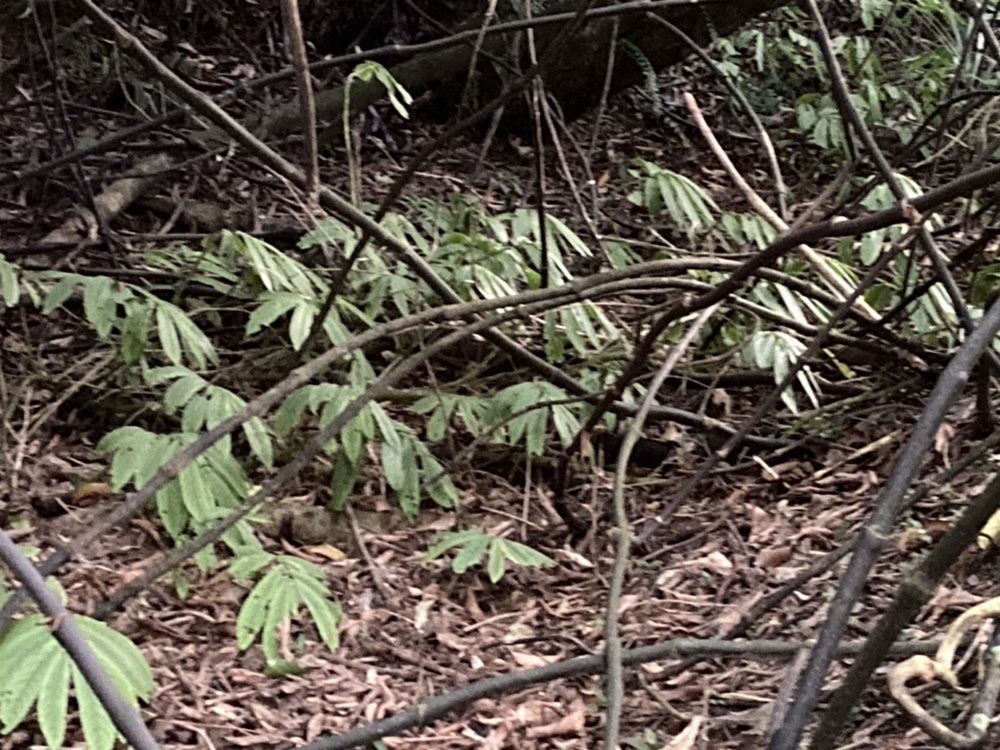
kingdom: Plantae
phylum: Tracheophyta
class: Magnoliopsida
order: Rosales
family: Urticaceae
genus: Elatostema
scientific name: Elatostema rugosum
